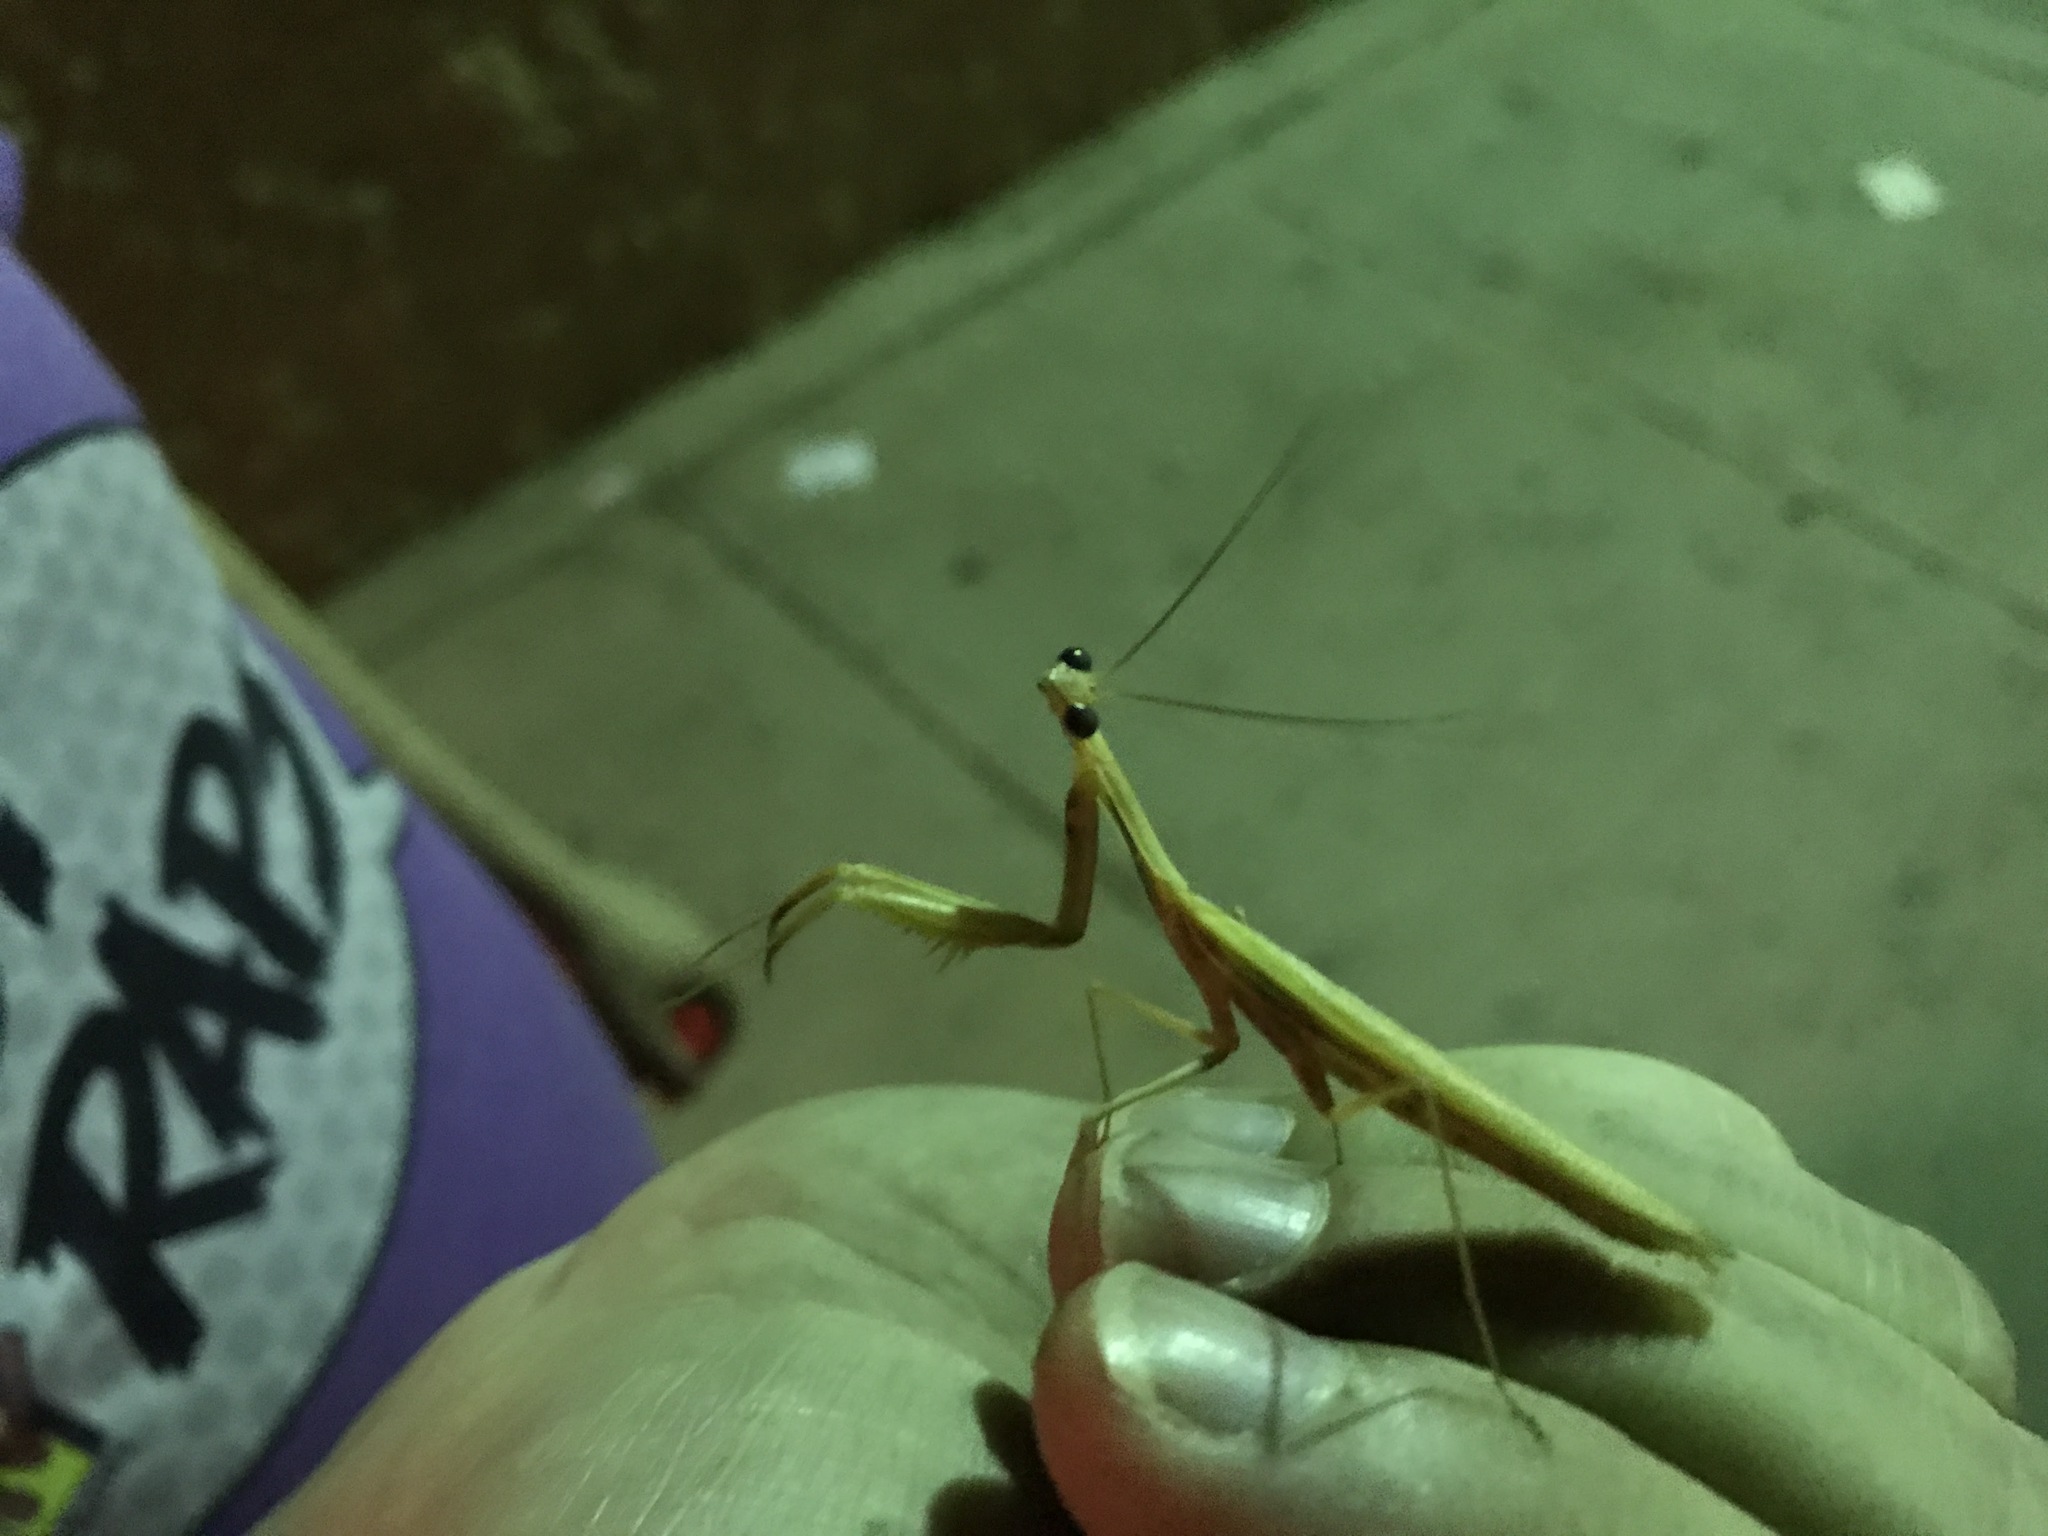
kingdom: Animalia
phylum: Arthropoda
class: Insecta
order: Mantodea
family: Mantidae
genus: Mantis
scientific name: Mantis religiosa
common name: Praying mantis
